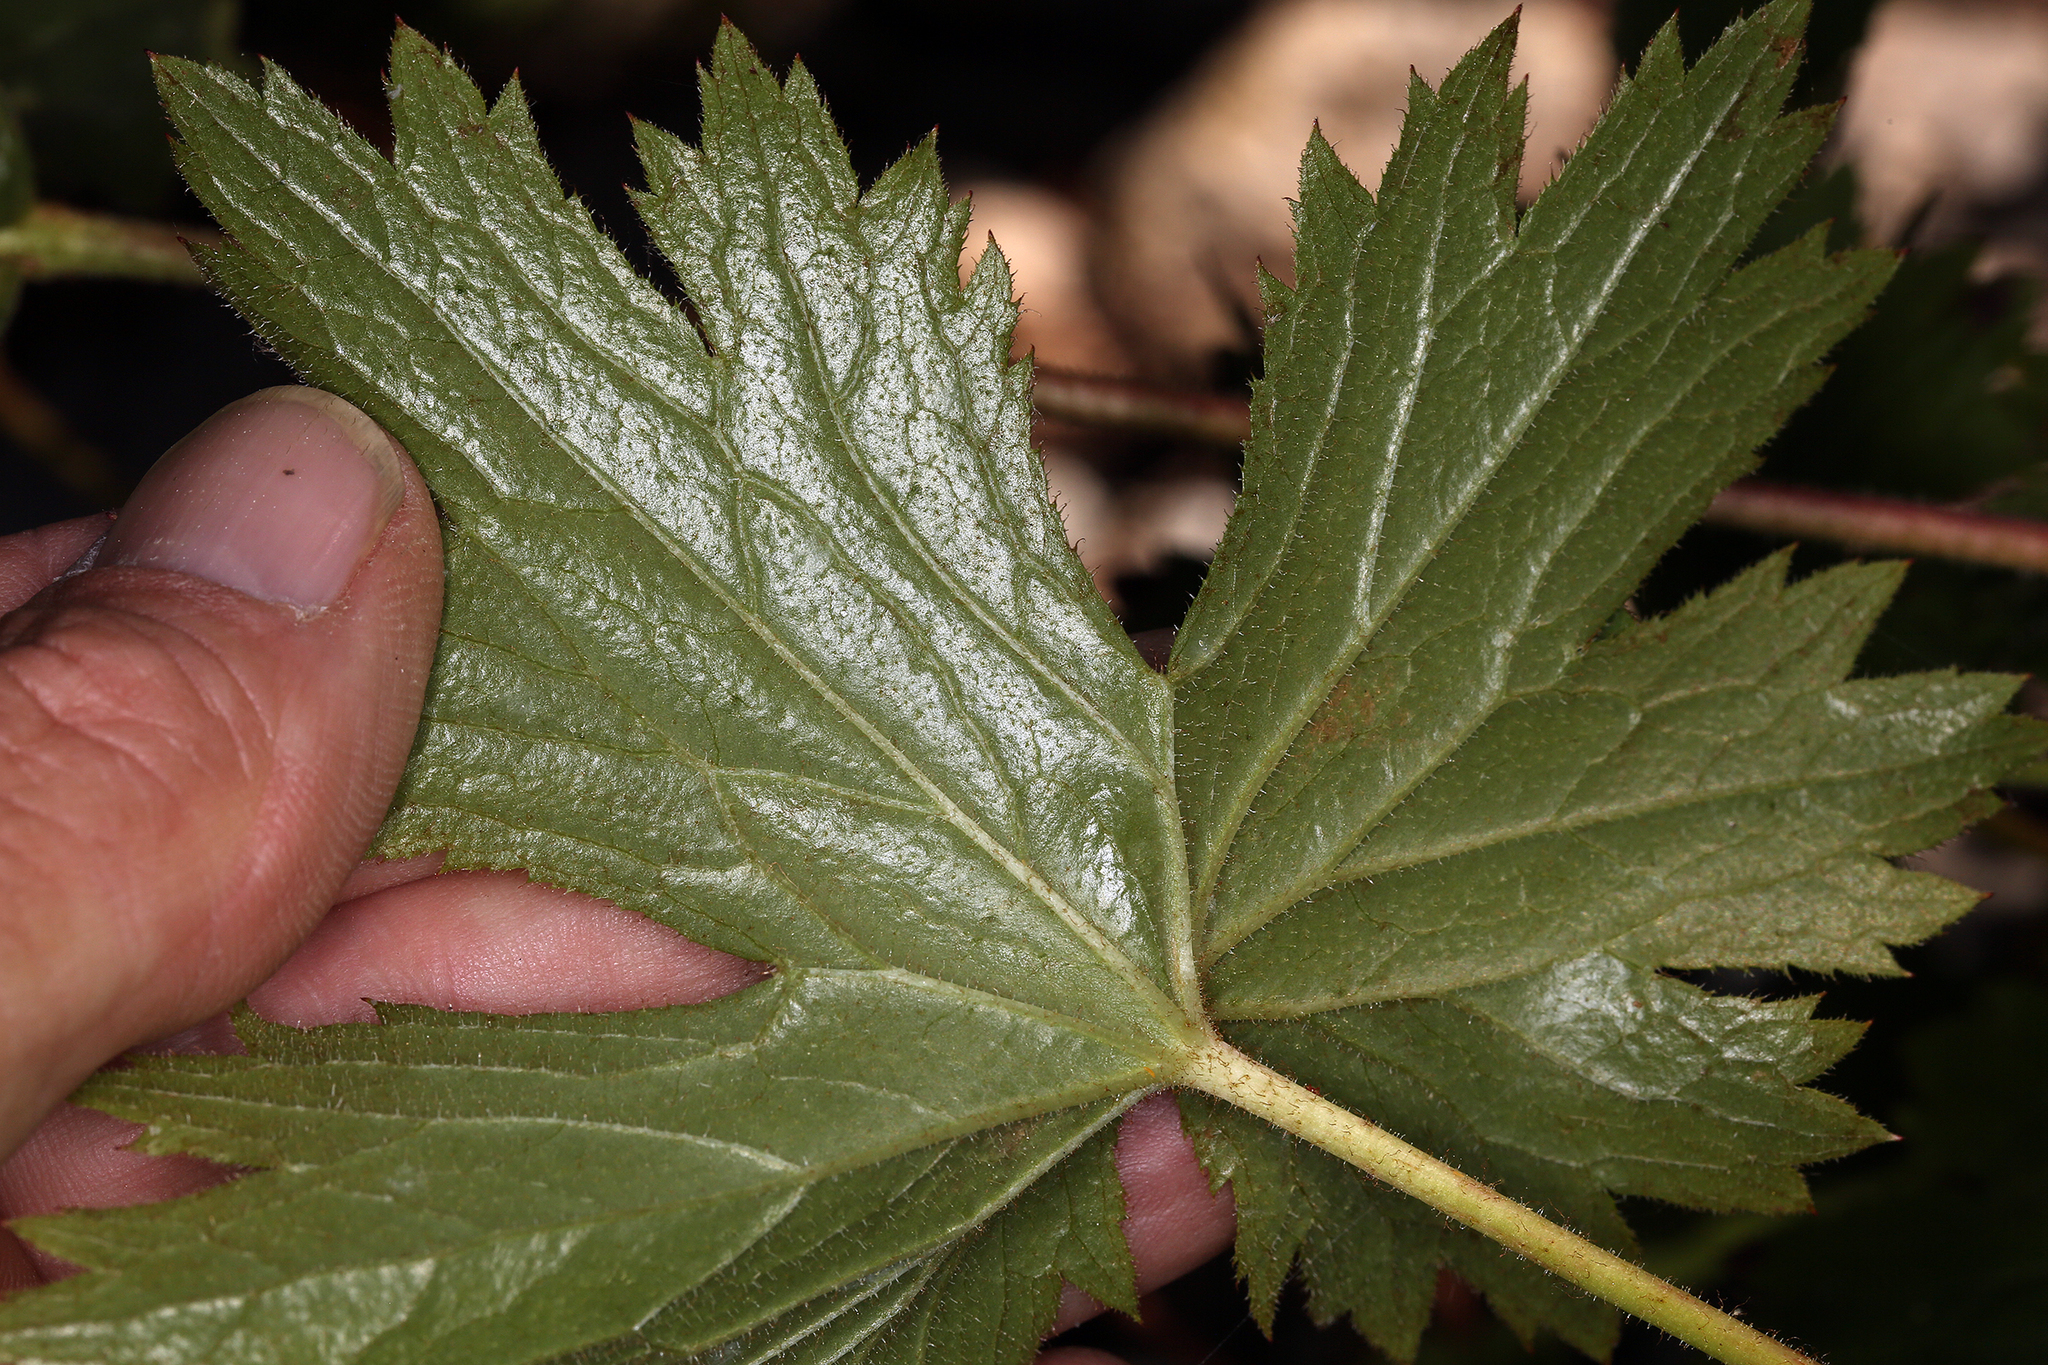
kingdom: Plantae
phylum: Tracheophyta
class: Magnoliopsida
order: Saxifragales
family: Saxifragaceae
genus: Boykinia
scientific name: Boykinia major
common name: Large boykinia
